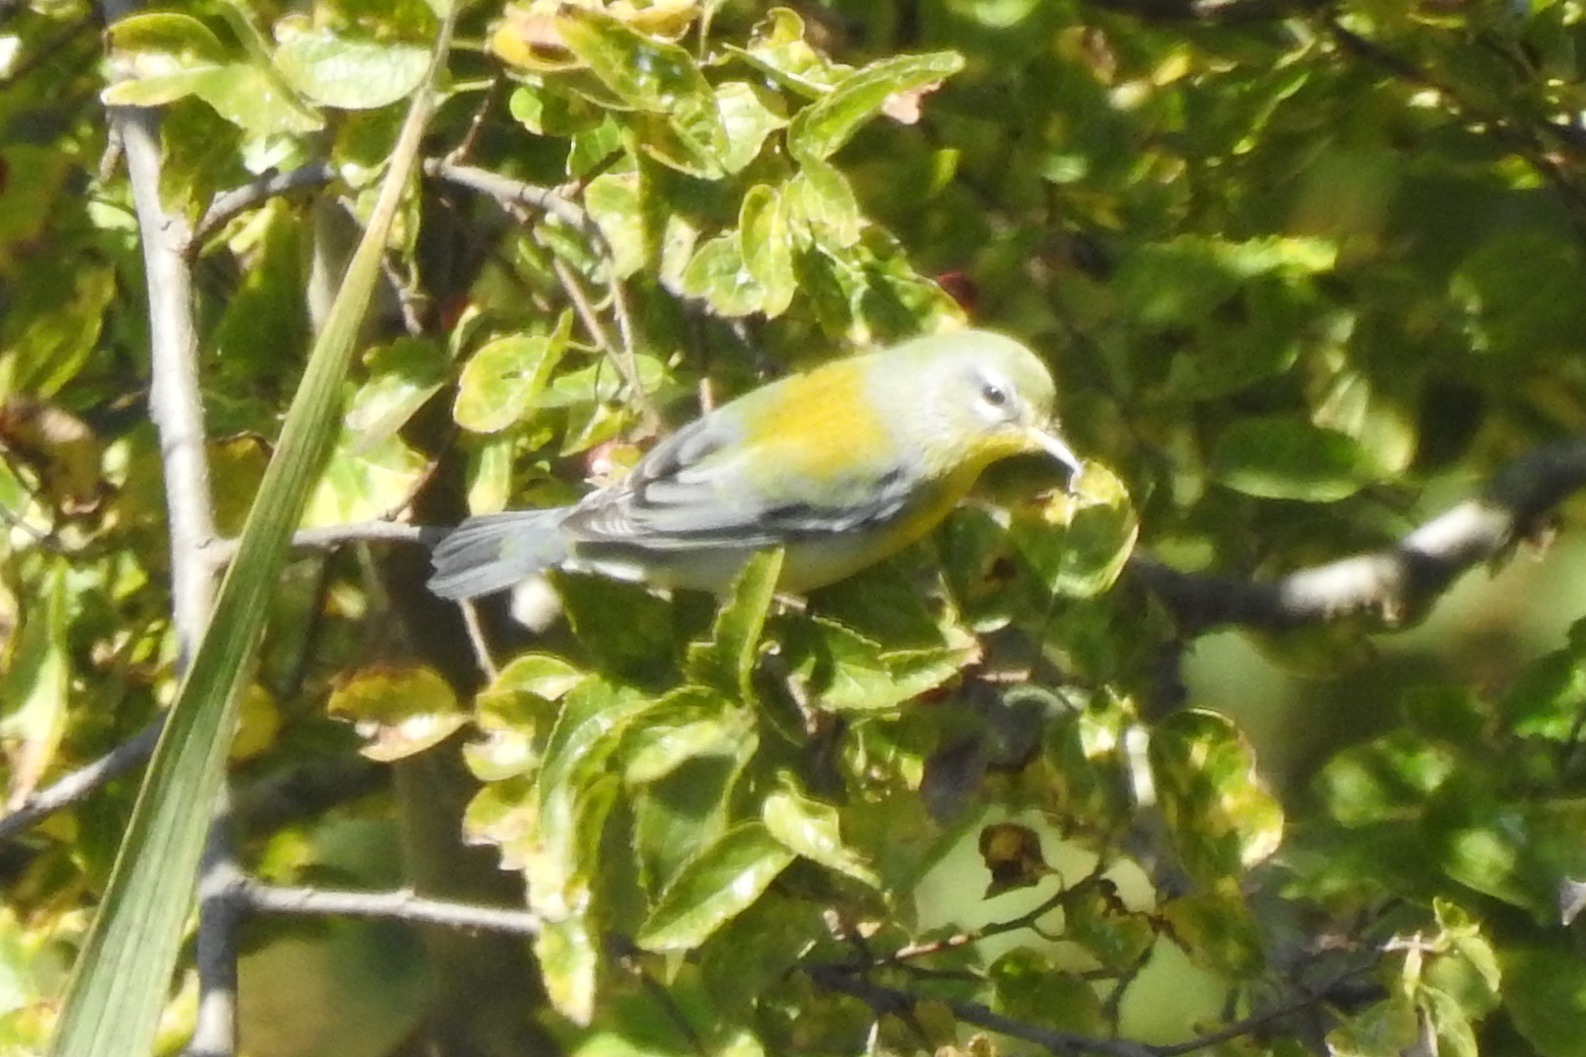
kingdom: Animalia
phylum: Chordata
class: Aves
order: Passeriformes
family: Parulidae
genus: Setophaga
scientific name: Setophaga americana
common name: Northern parula
